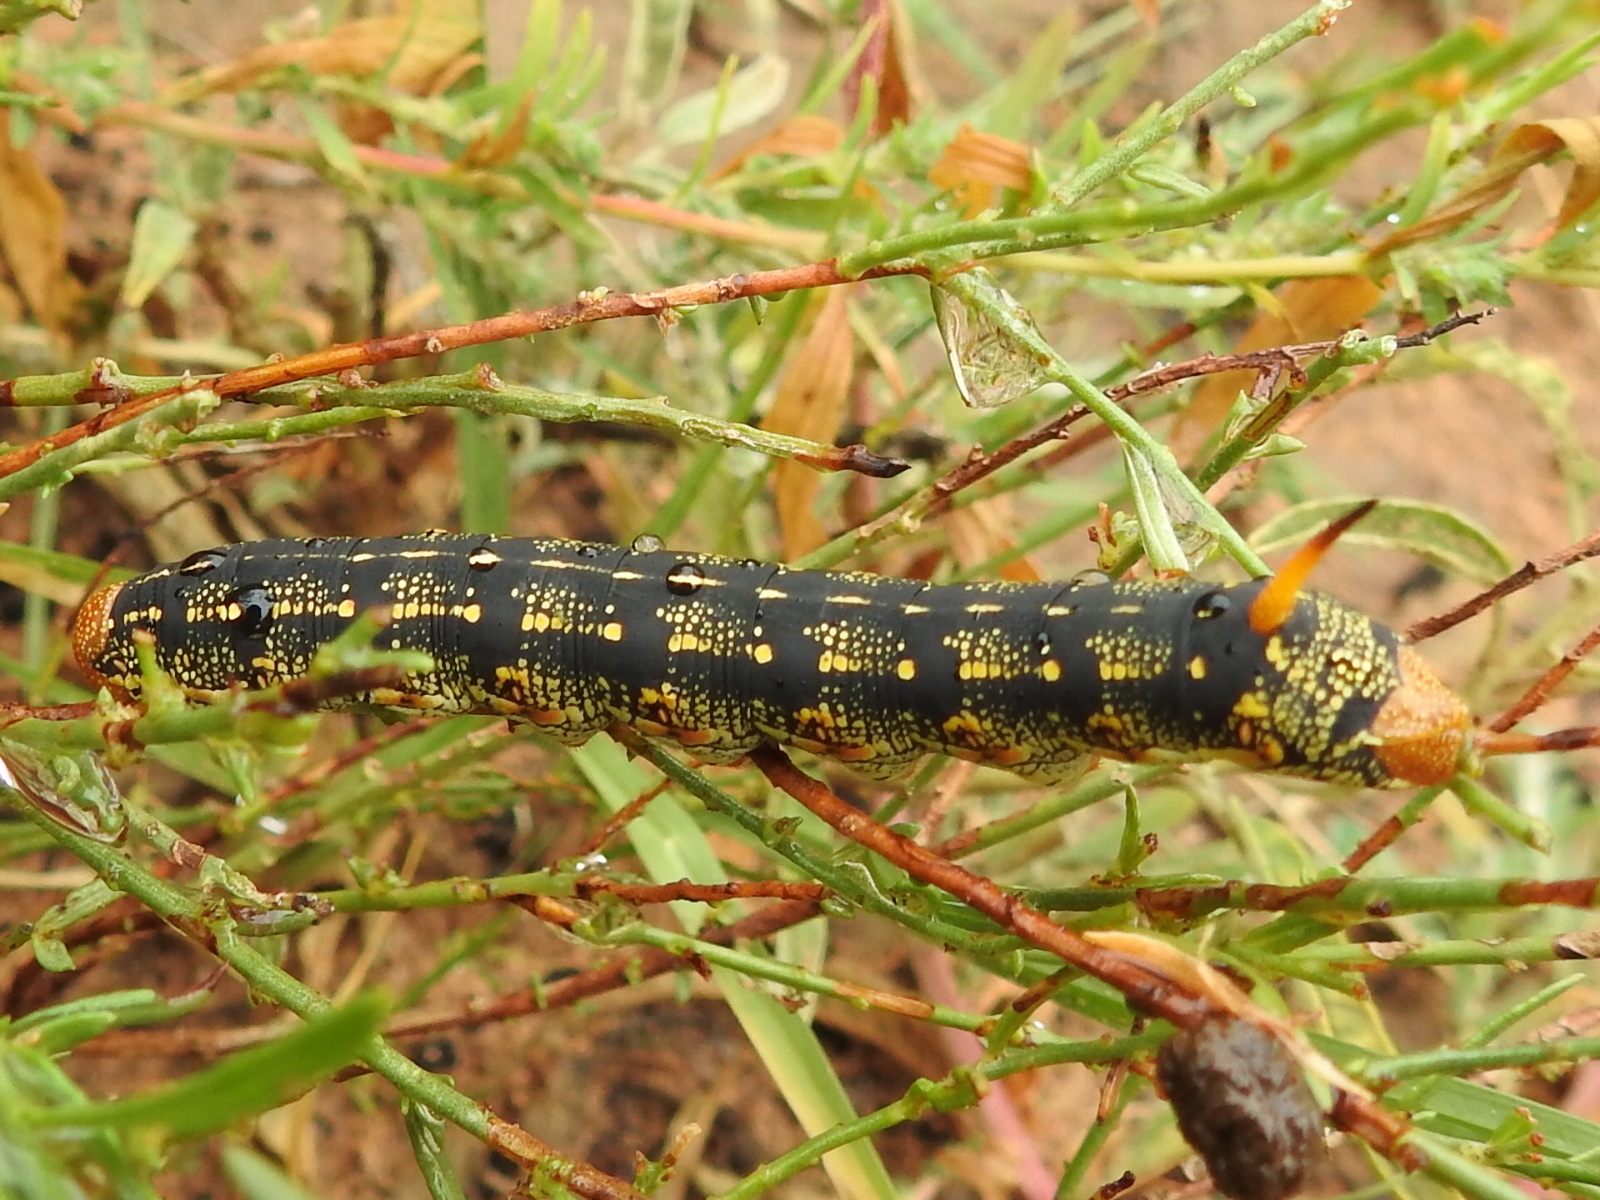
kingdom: Animalia
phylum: Arthropoda
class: Insecta
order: Lepidoptera
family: Sphingidae
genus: Hyles
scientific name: Hyles lineata
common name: White-lined sphinx
